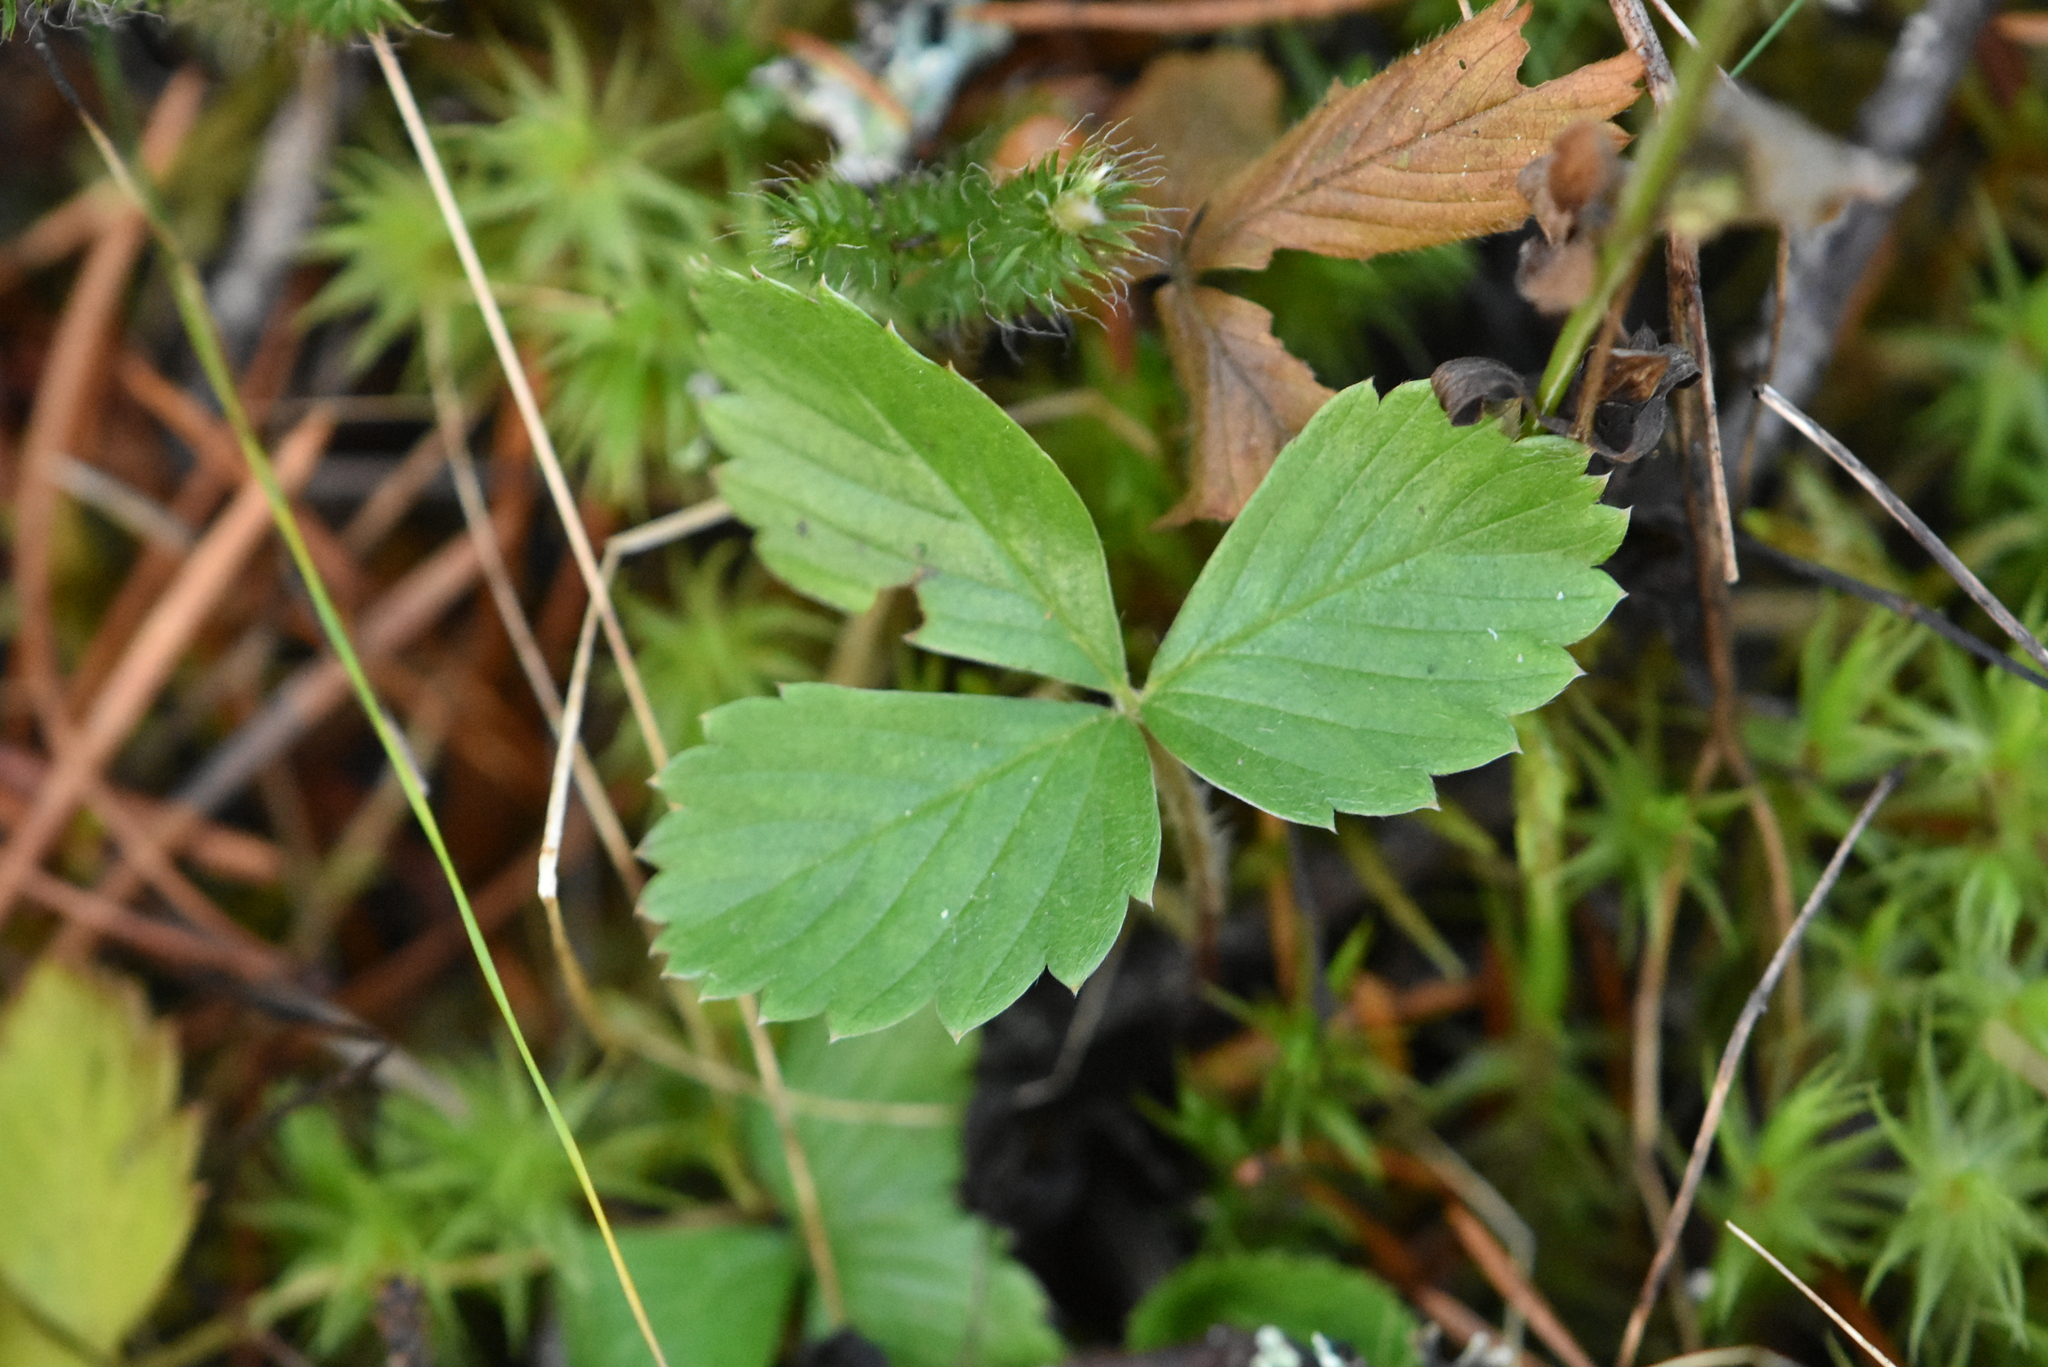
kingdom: Plantae
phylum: Tracheophyta
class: Magnoliopsida
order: Rosales
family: Rosaceae
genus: Fragaria
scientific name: Fragaria vesca
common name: Wild strawberry
